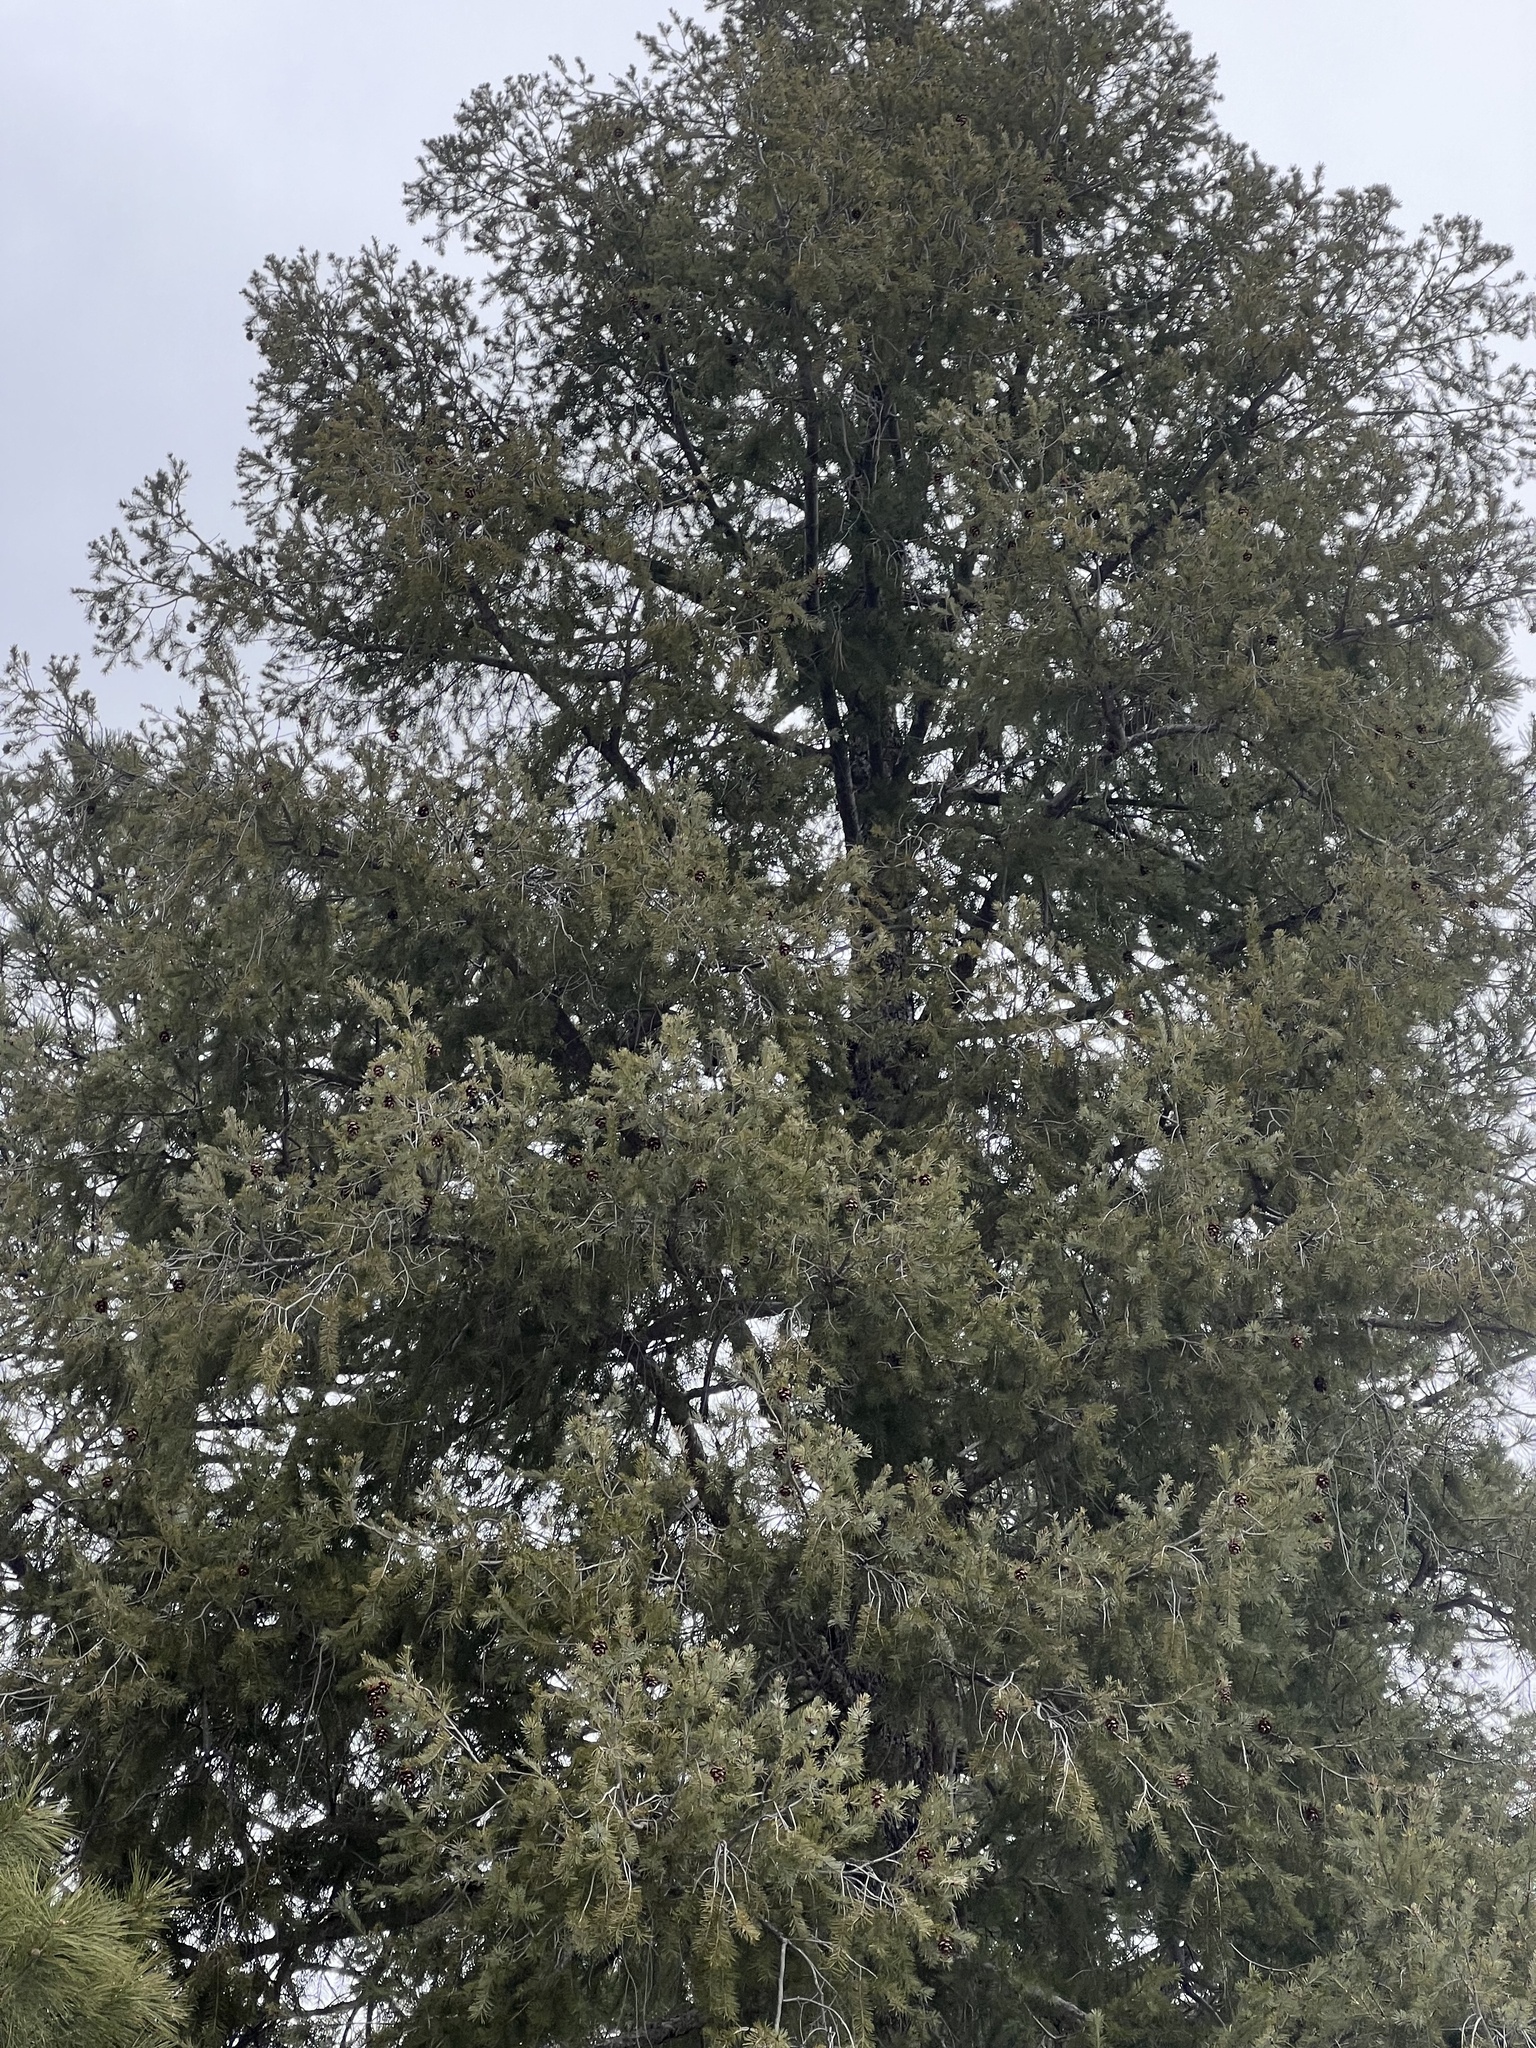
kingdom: Plantae
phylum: Tracheophyta
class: Pinopsida
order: Pinales
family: Pinaceae
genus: Pseudotsuga
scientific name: Pseudotsuga menziesii
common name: Douglas fir
